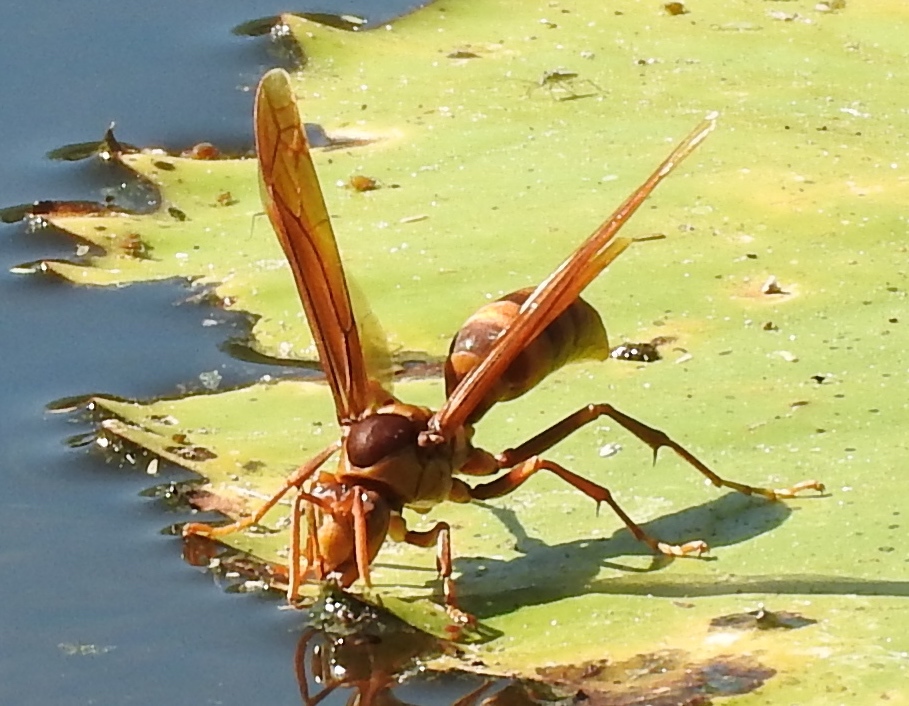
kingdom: Animalia
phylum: Arthropoda
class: Insecta
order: Hymenoptera
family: Eumenidae
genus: Polistes
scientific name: Polistes carnifex
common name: Paper wasp
